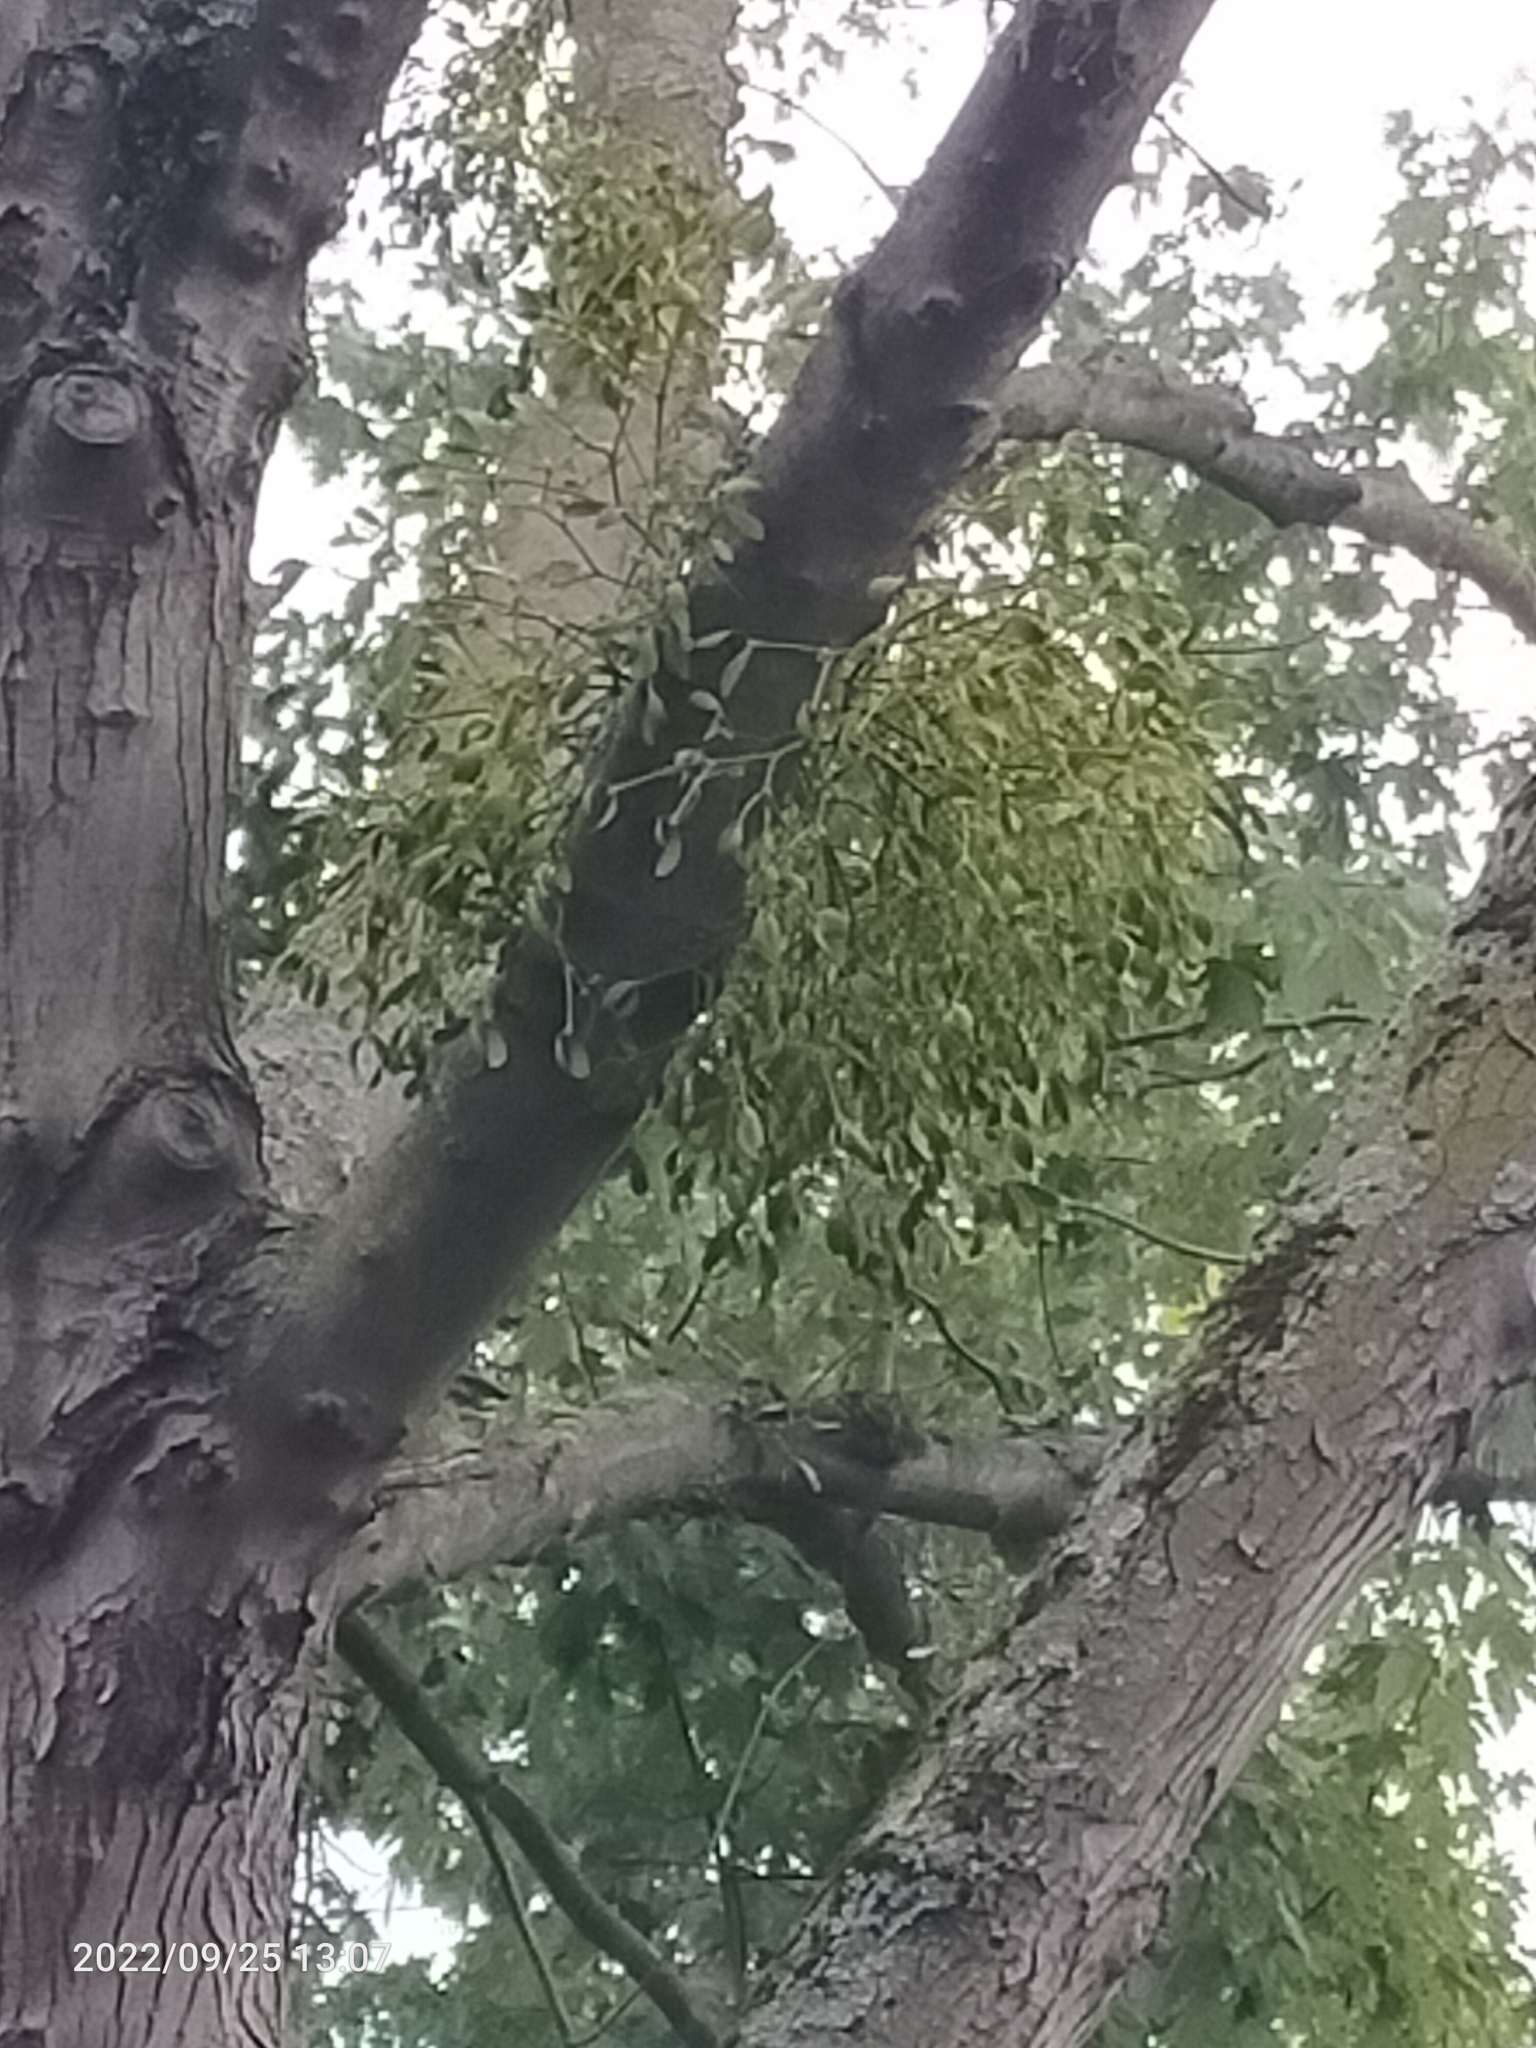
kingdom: Plantae
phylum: Tracheophyta
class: Magnoliopsida
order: Santalales
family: Viscaceae
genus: Viscum
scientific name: Viscum album
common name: Mistletoe
